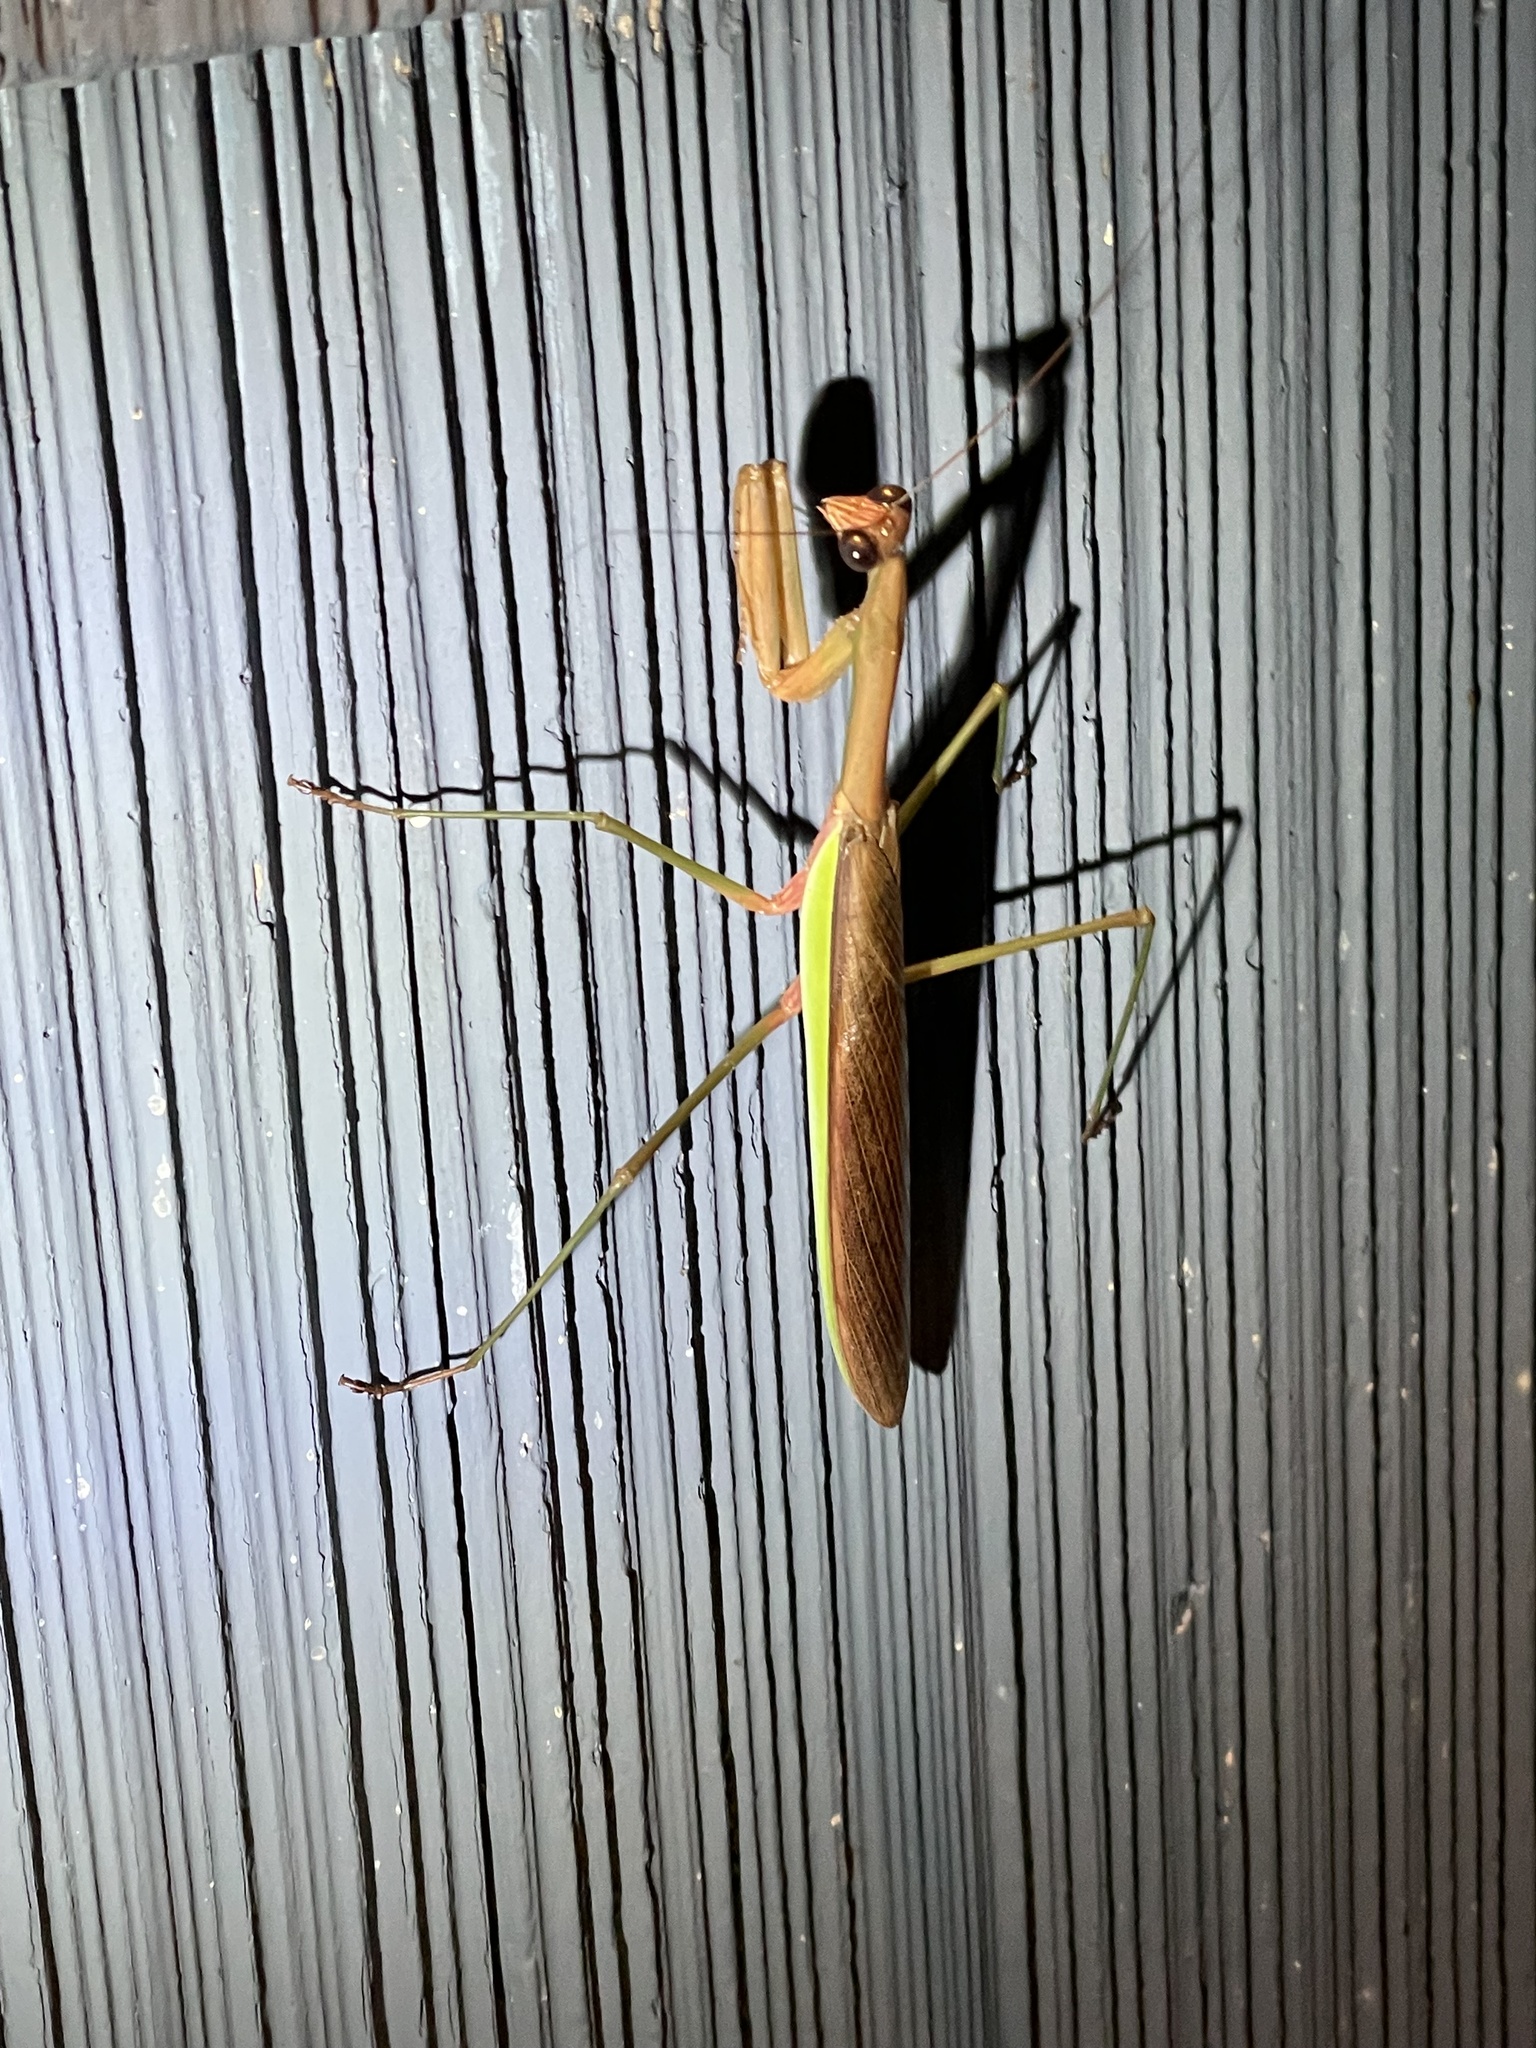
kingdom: Animalia
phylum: Arthropoda
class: Insecta
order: Mantodea
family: Mantidae
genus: Tenodera
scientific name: Tenodera sinensis
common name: Chinese mantis
